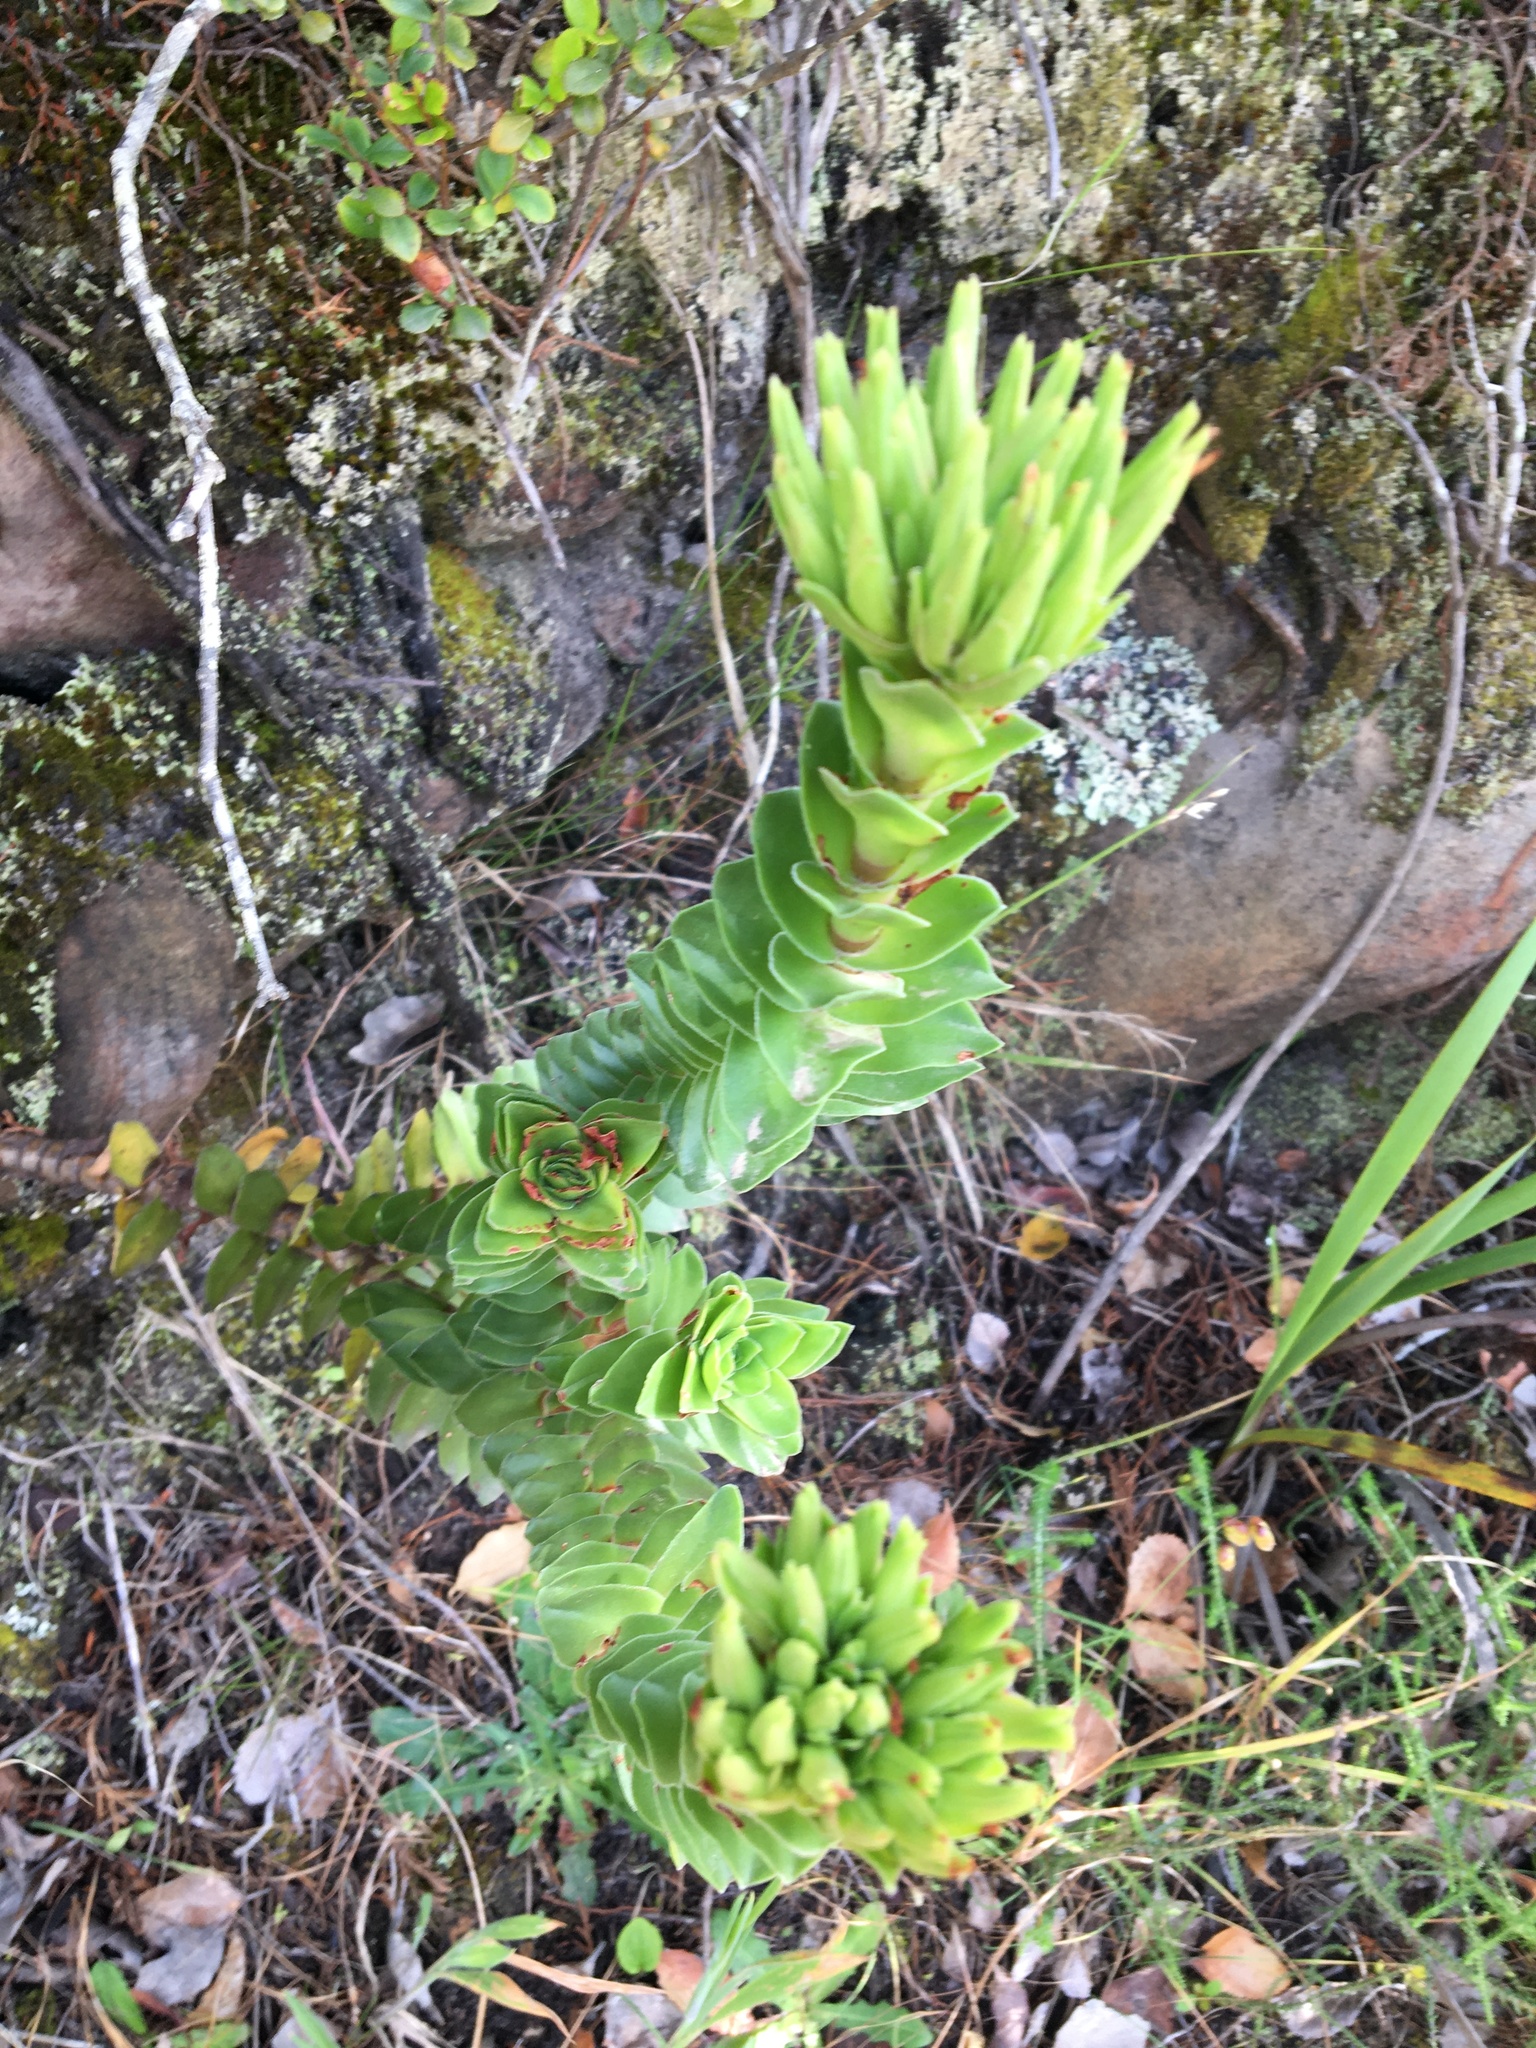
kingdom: Plantae
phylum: Tracheophyta
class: Magnoliopsida
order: Saxifragales
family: Crassulaceae
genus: Crassula
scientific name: Crassula coccinea
